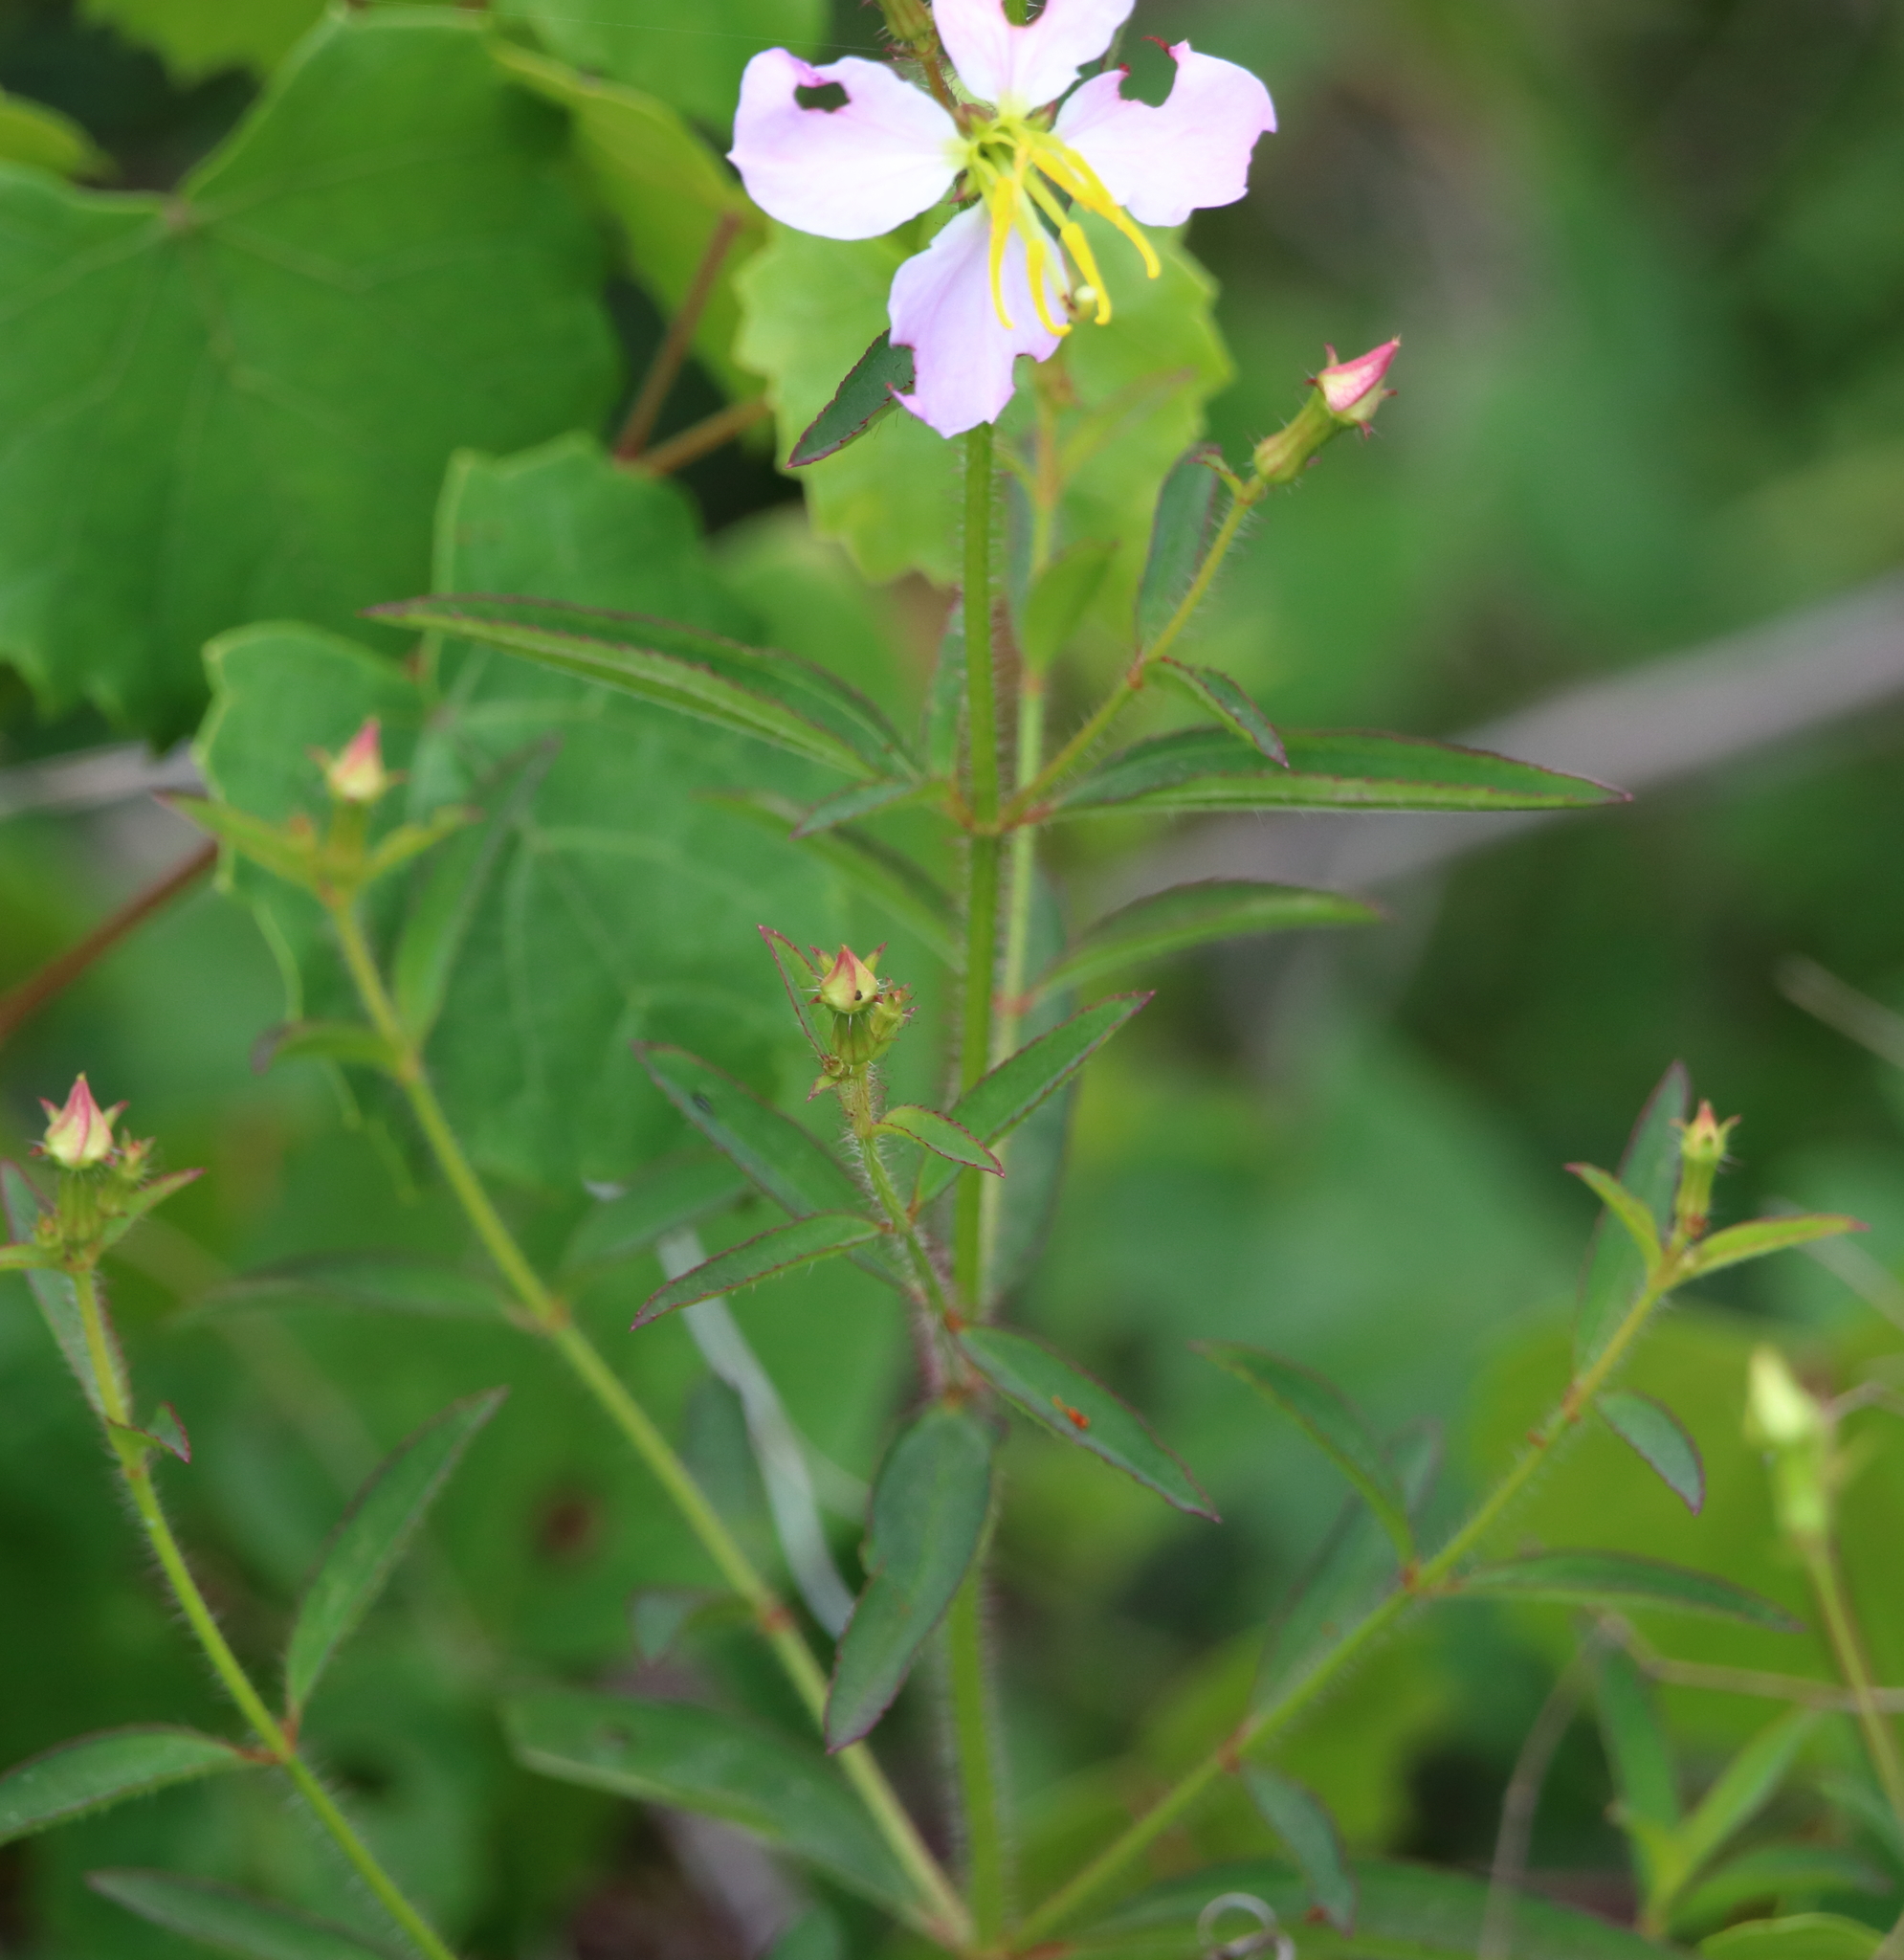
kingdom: Plantae
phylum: Tracheophyta
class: Magnoliopsida
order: Myrtales
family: Melastomataceae
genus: Rhexia
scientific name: Rhexia mariana
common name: Dull meadow-pitcher
